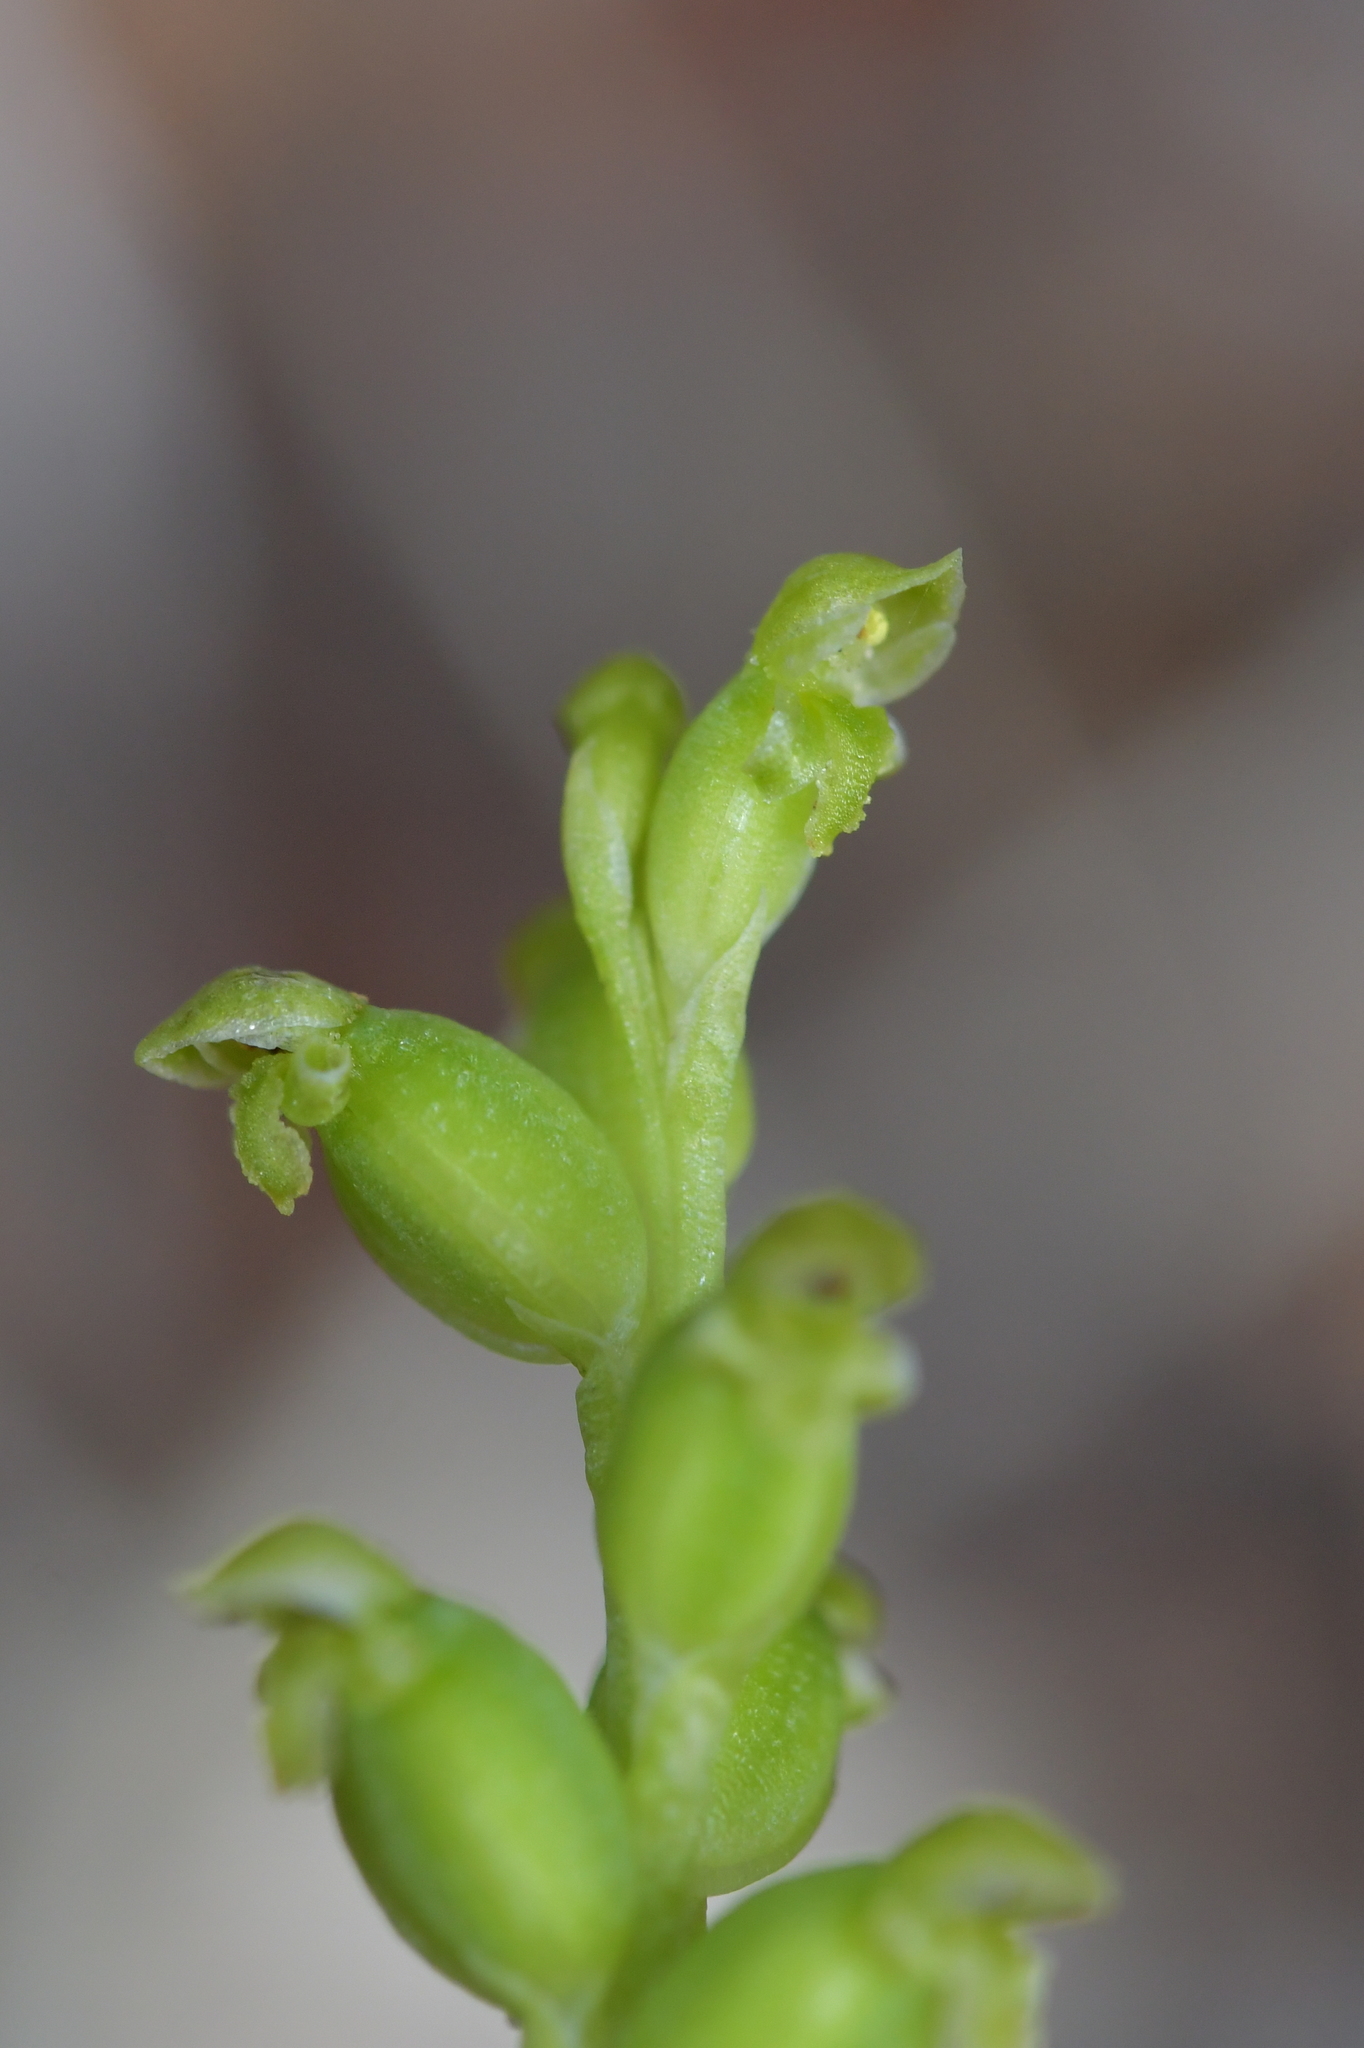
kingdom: Plantae
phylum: Tracheophyta
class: Liliopsida
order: Asparagales
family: Orchidaceae
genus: Microtis
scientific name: Microtis unifolia
